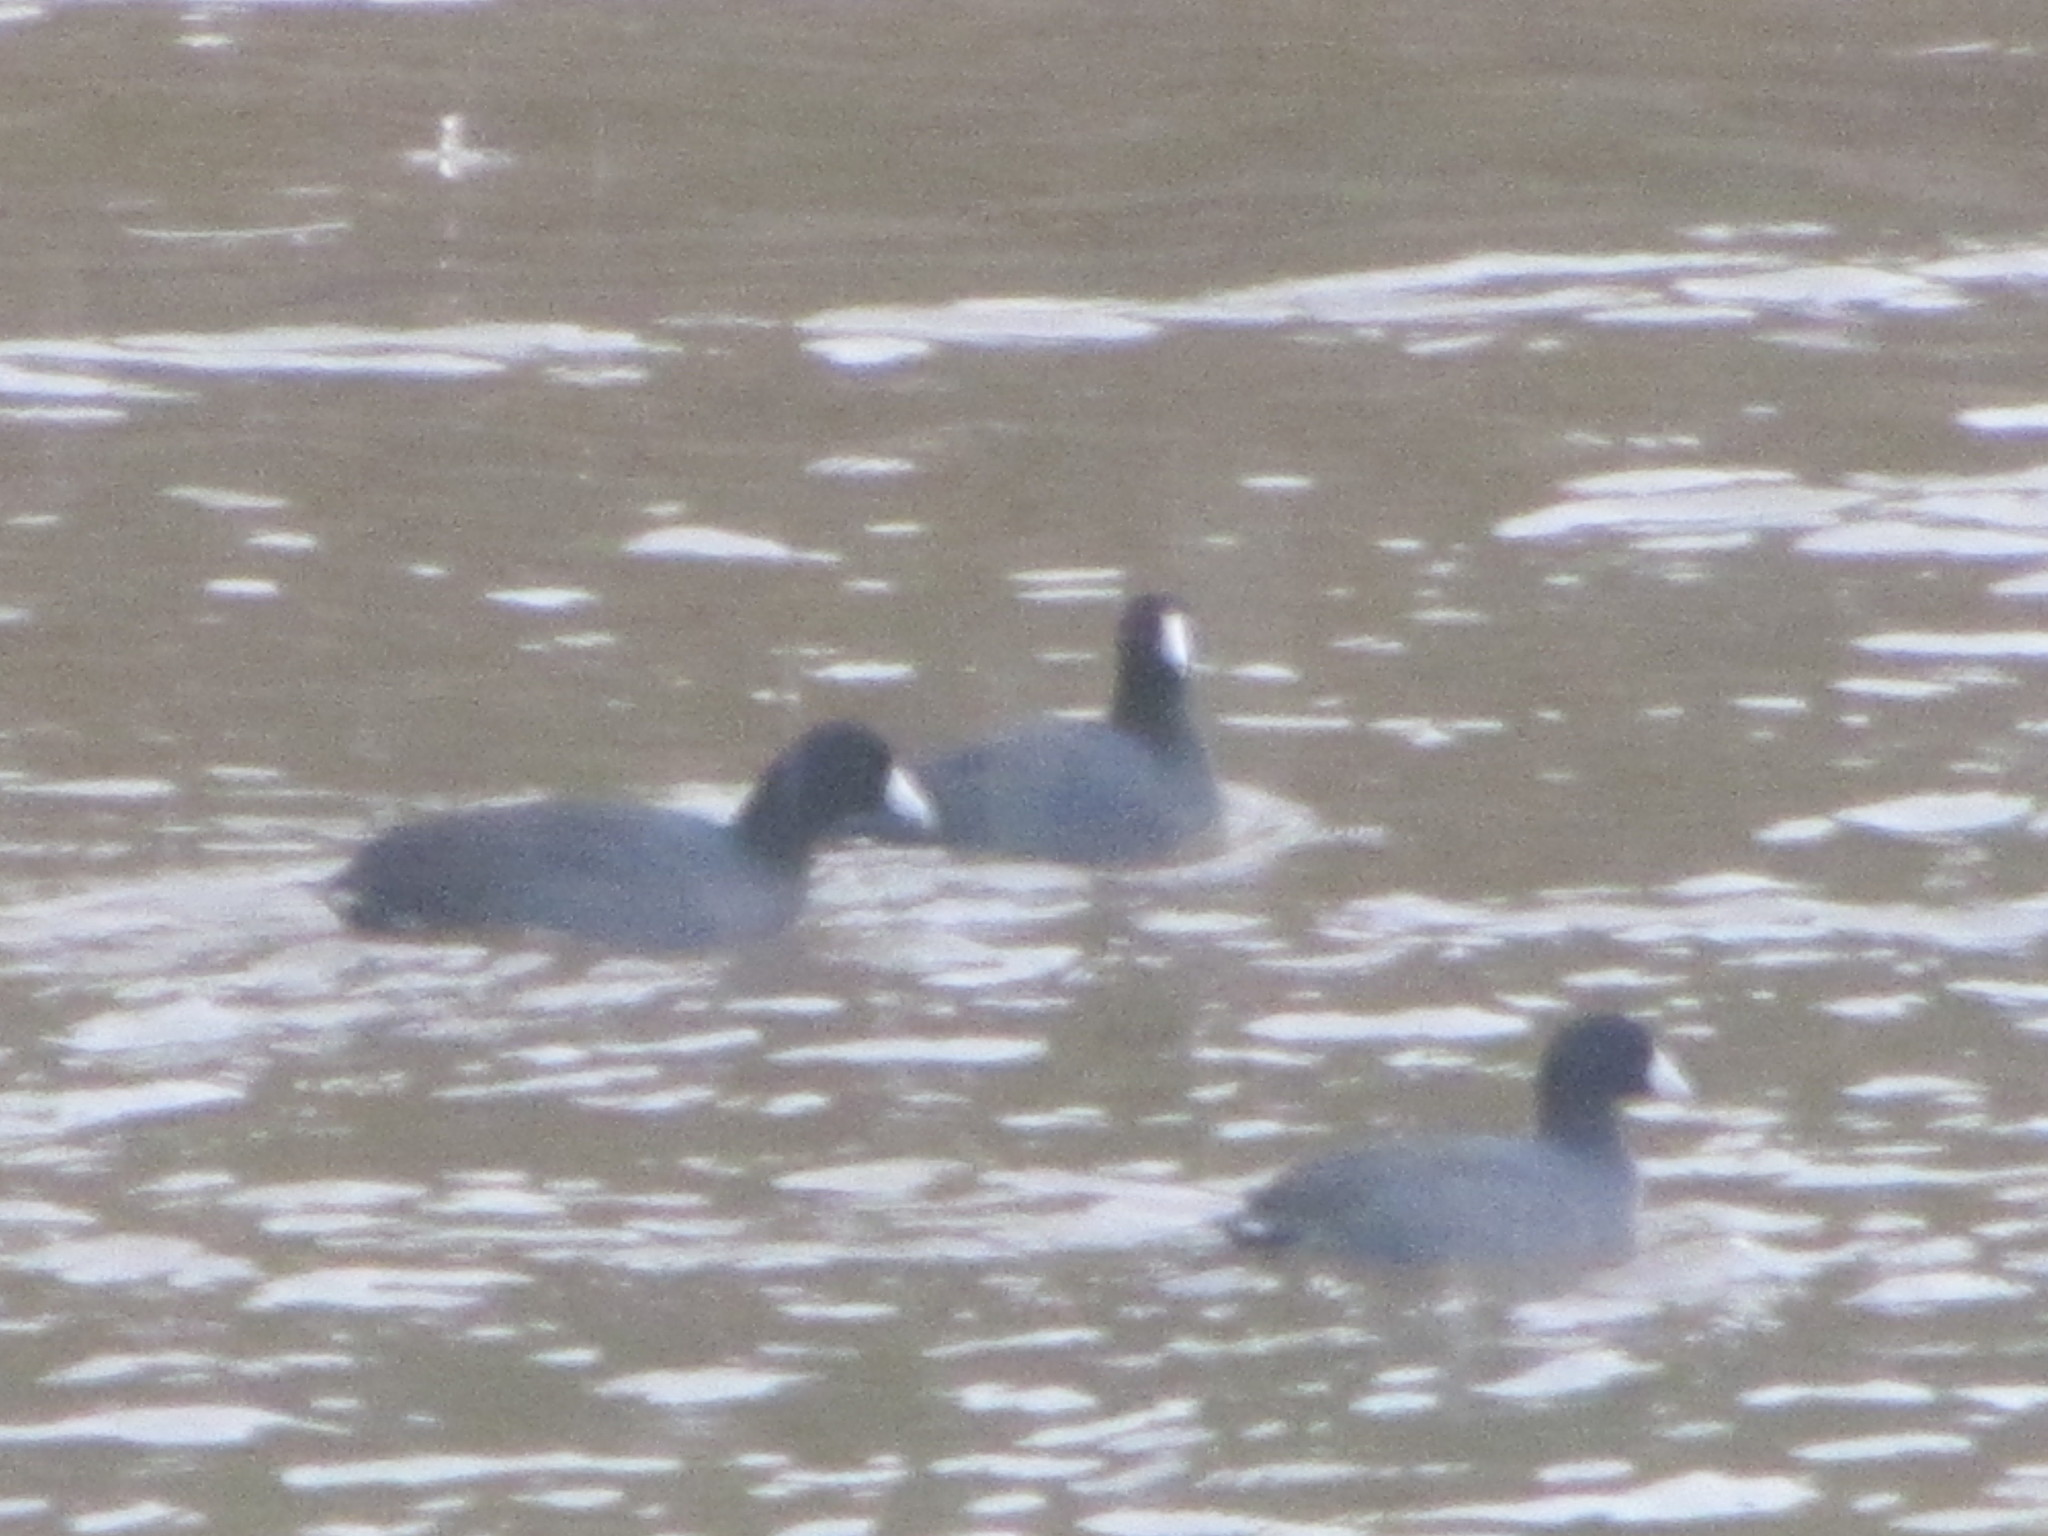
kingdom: Animalia
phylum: Chordata
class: Aves
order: Gruiformes
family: Rallidae
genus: Fulica
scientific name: Fulica americana
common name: American coot
